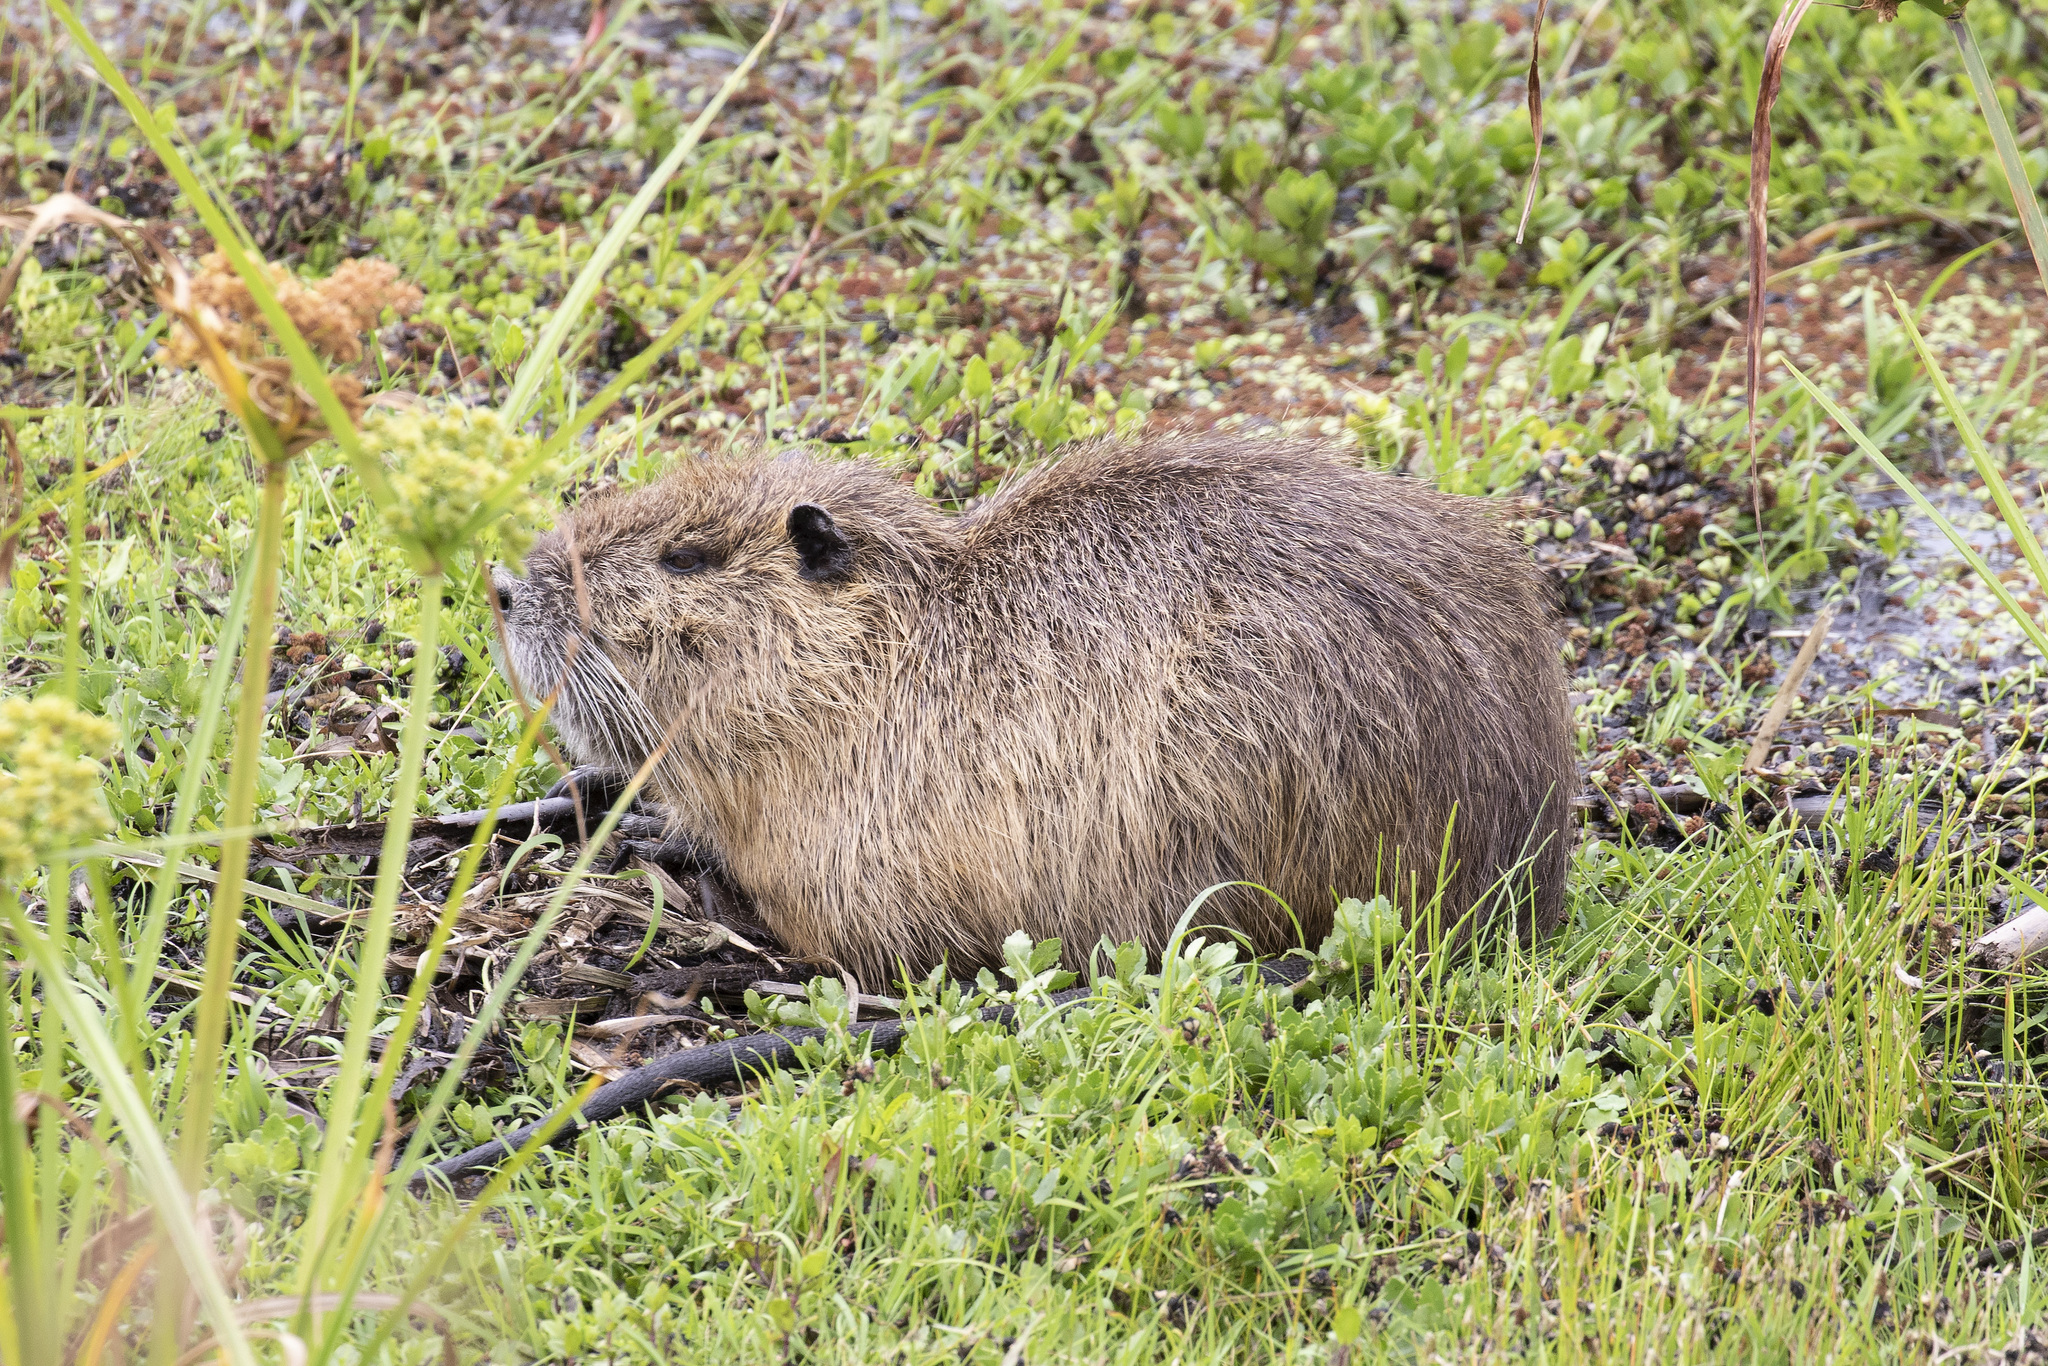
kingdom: Animalia
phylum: Chordata
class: Mammalia
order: Rodentia
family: Myocastoridae
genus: Myocastor
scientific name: Myocastor coypus
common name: Coypu
